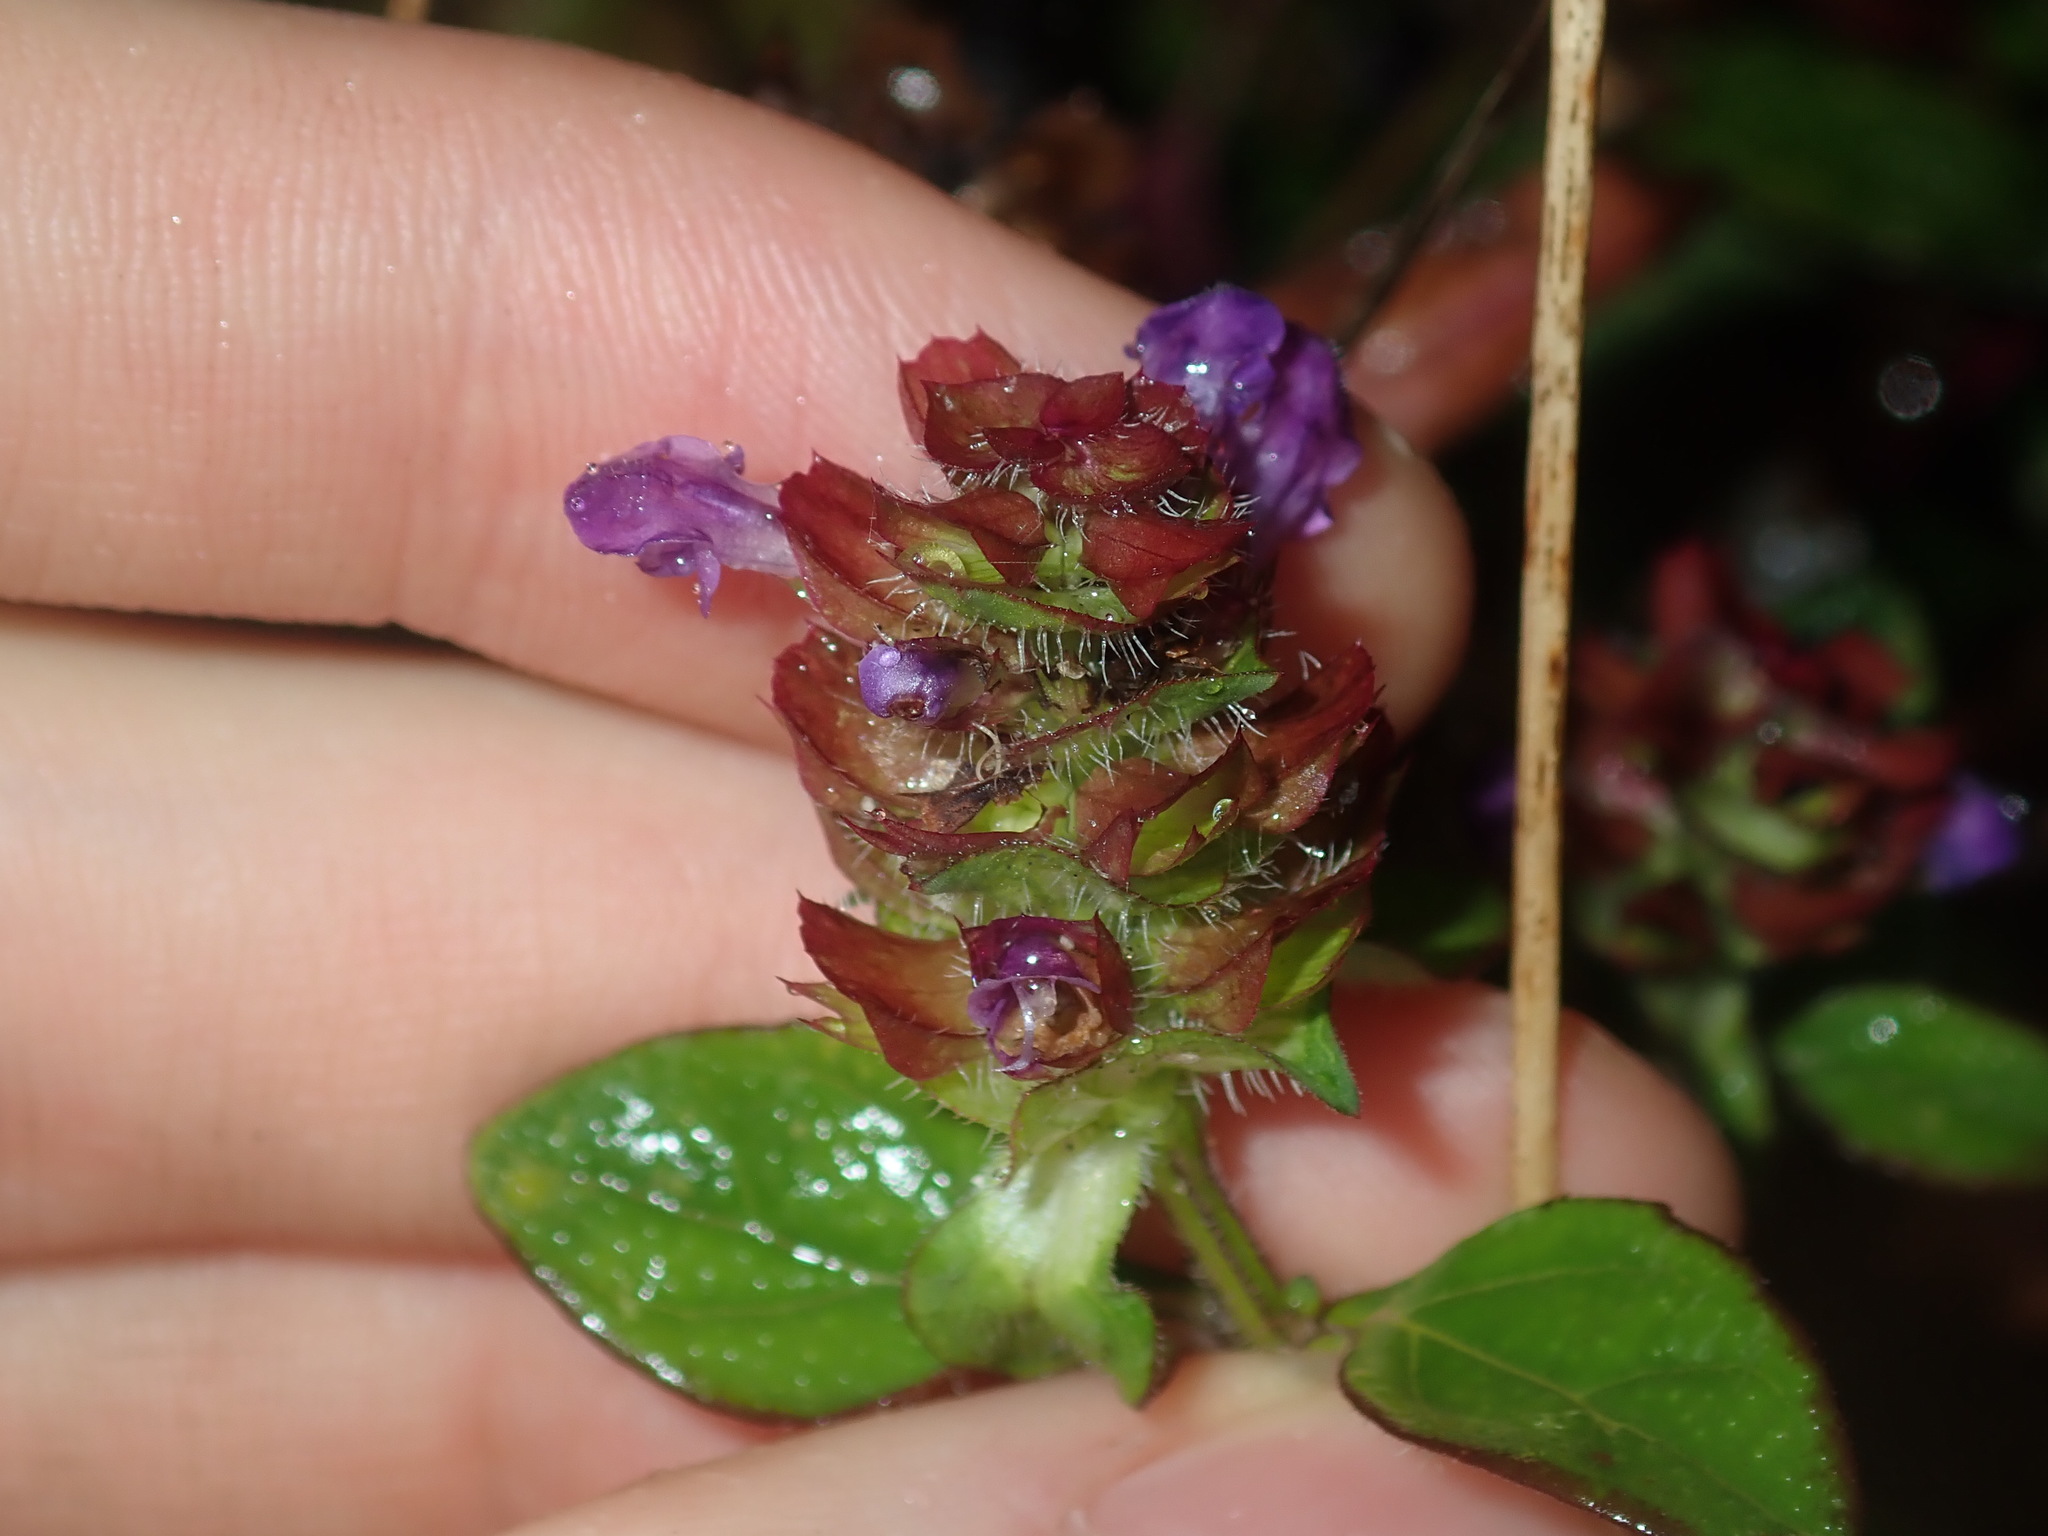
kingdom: Plantae
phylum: Tracheophyta
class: Magnoliopsida
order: Lamiales
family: Lamiaceae
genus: Prunella
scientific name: Prunella vulgaris
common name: Heal-all
